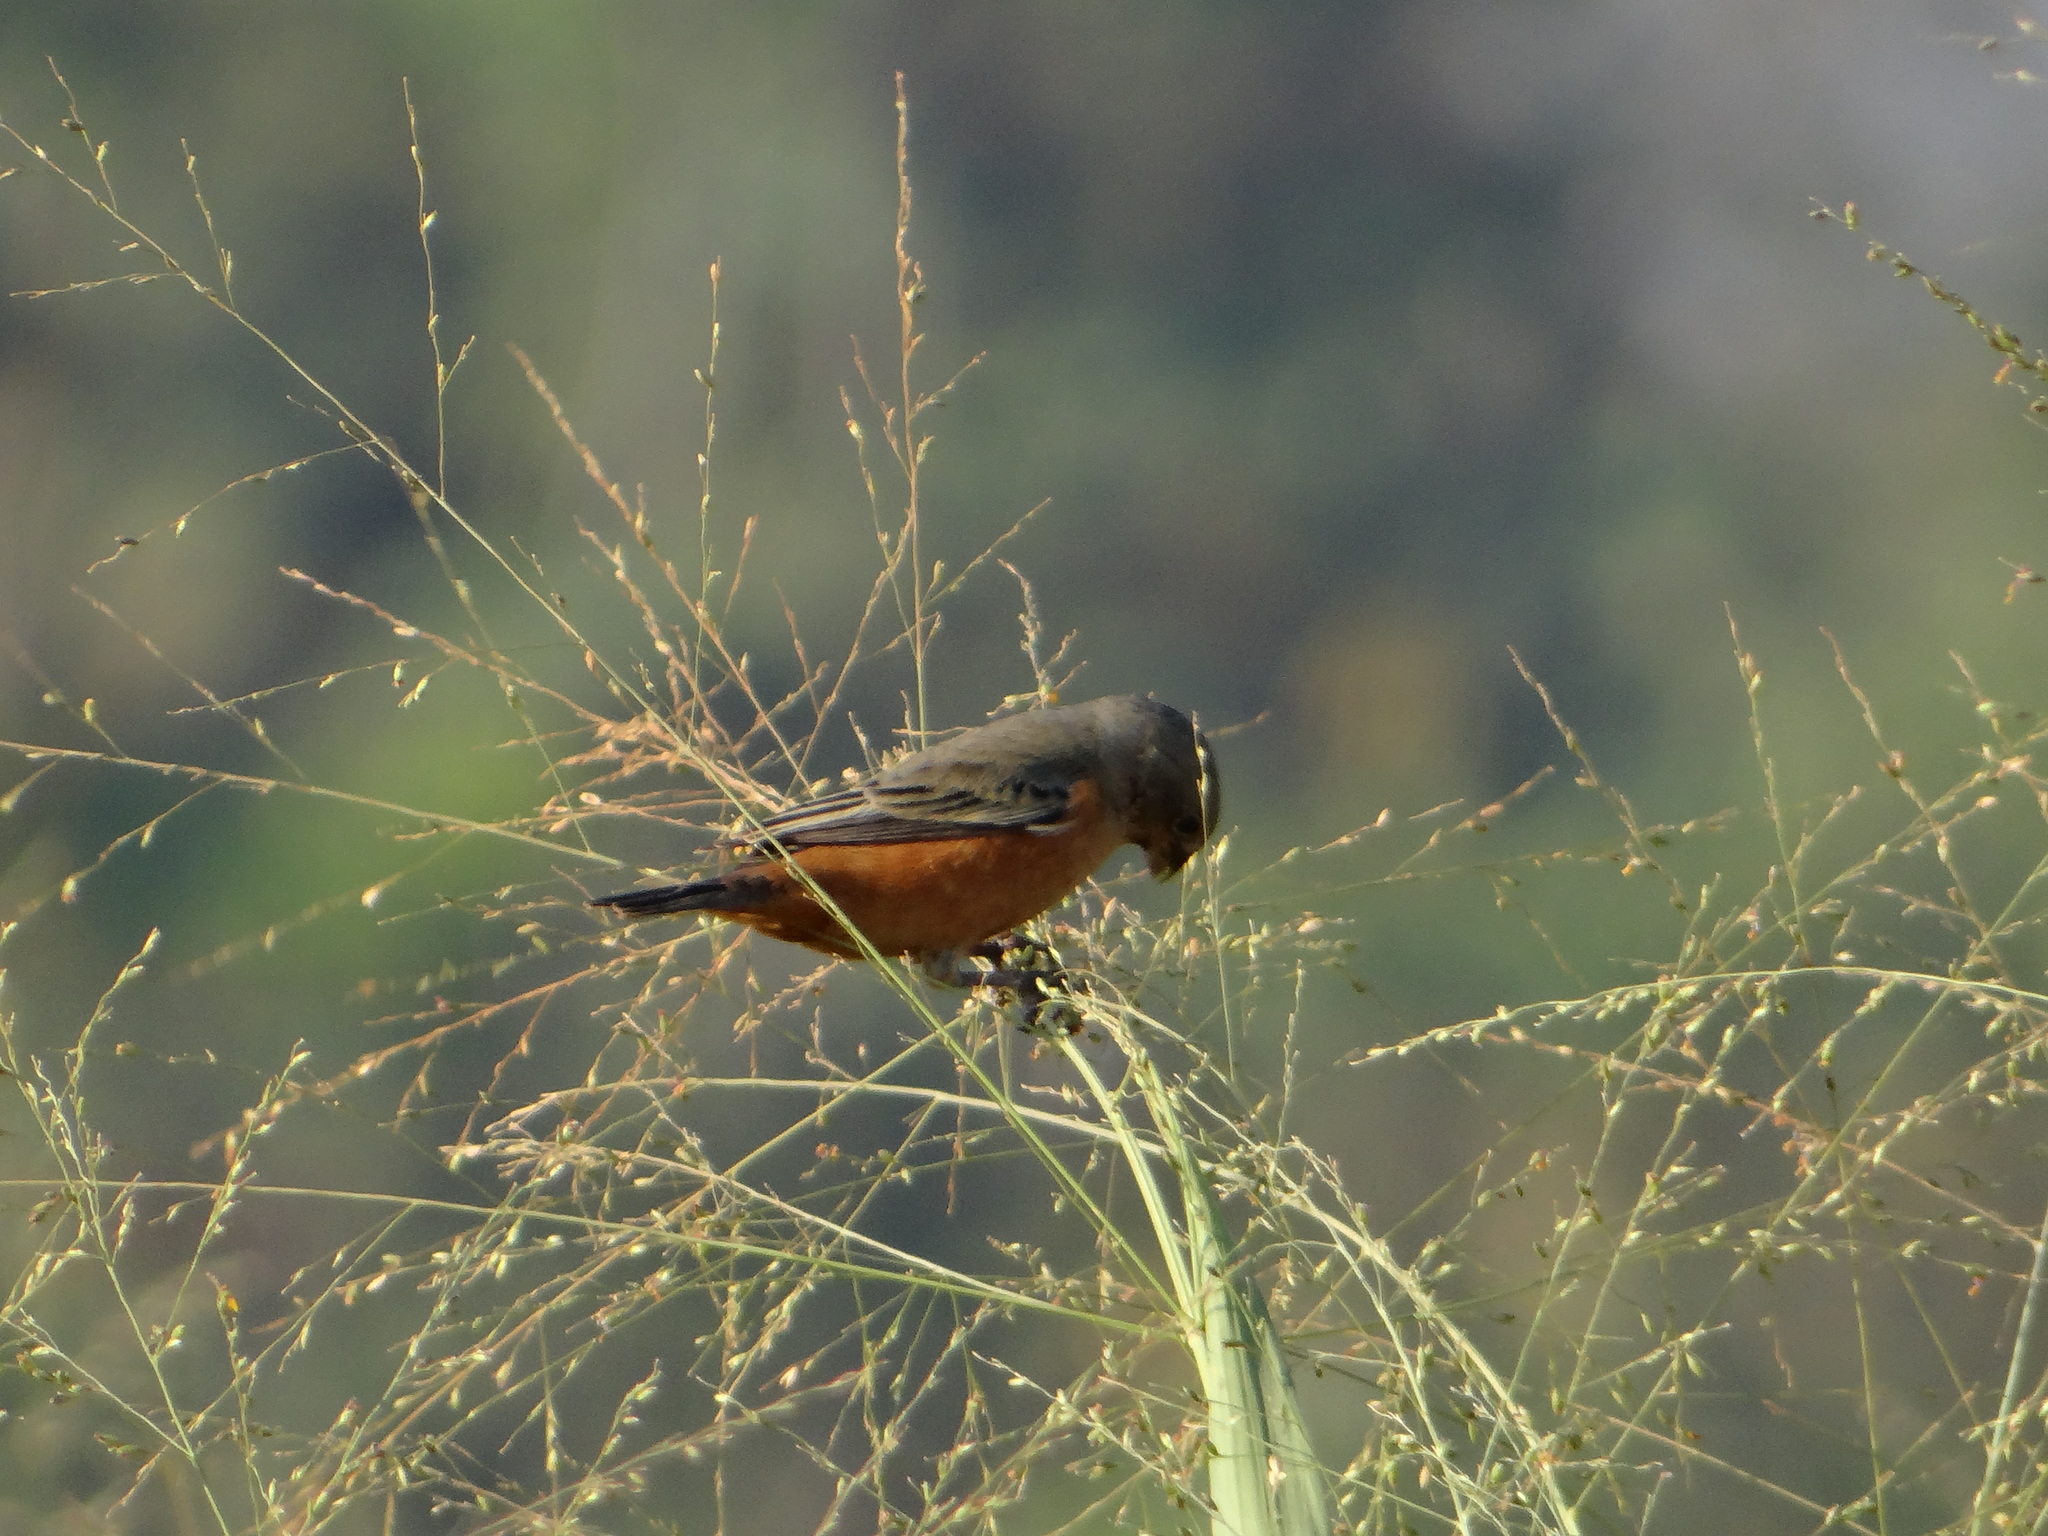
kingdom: Animalia
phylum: Chordata
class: Aves
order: Passeriformes
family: Thraupidae
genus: Sporophila
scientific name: Sporophila hypoxantha
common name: Tawny-bellied seedeater
